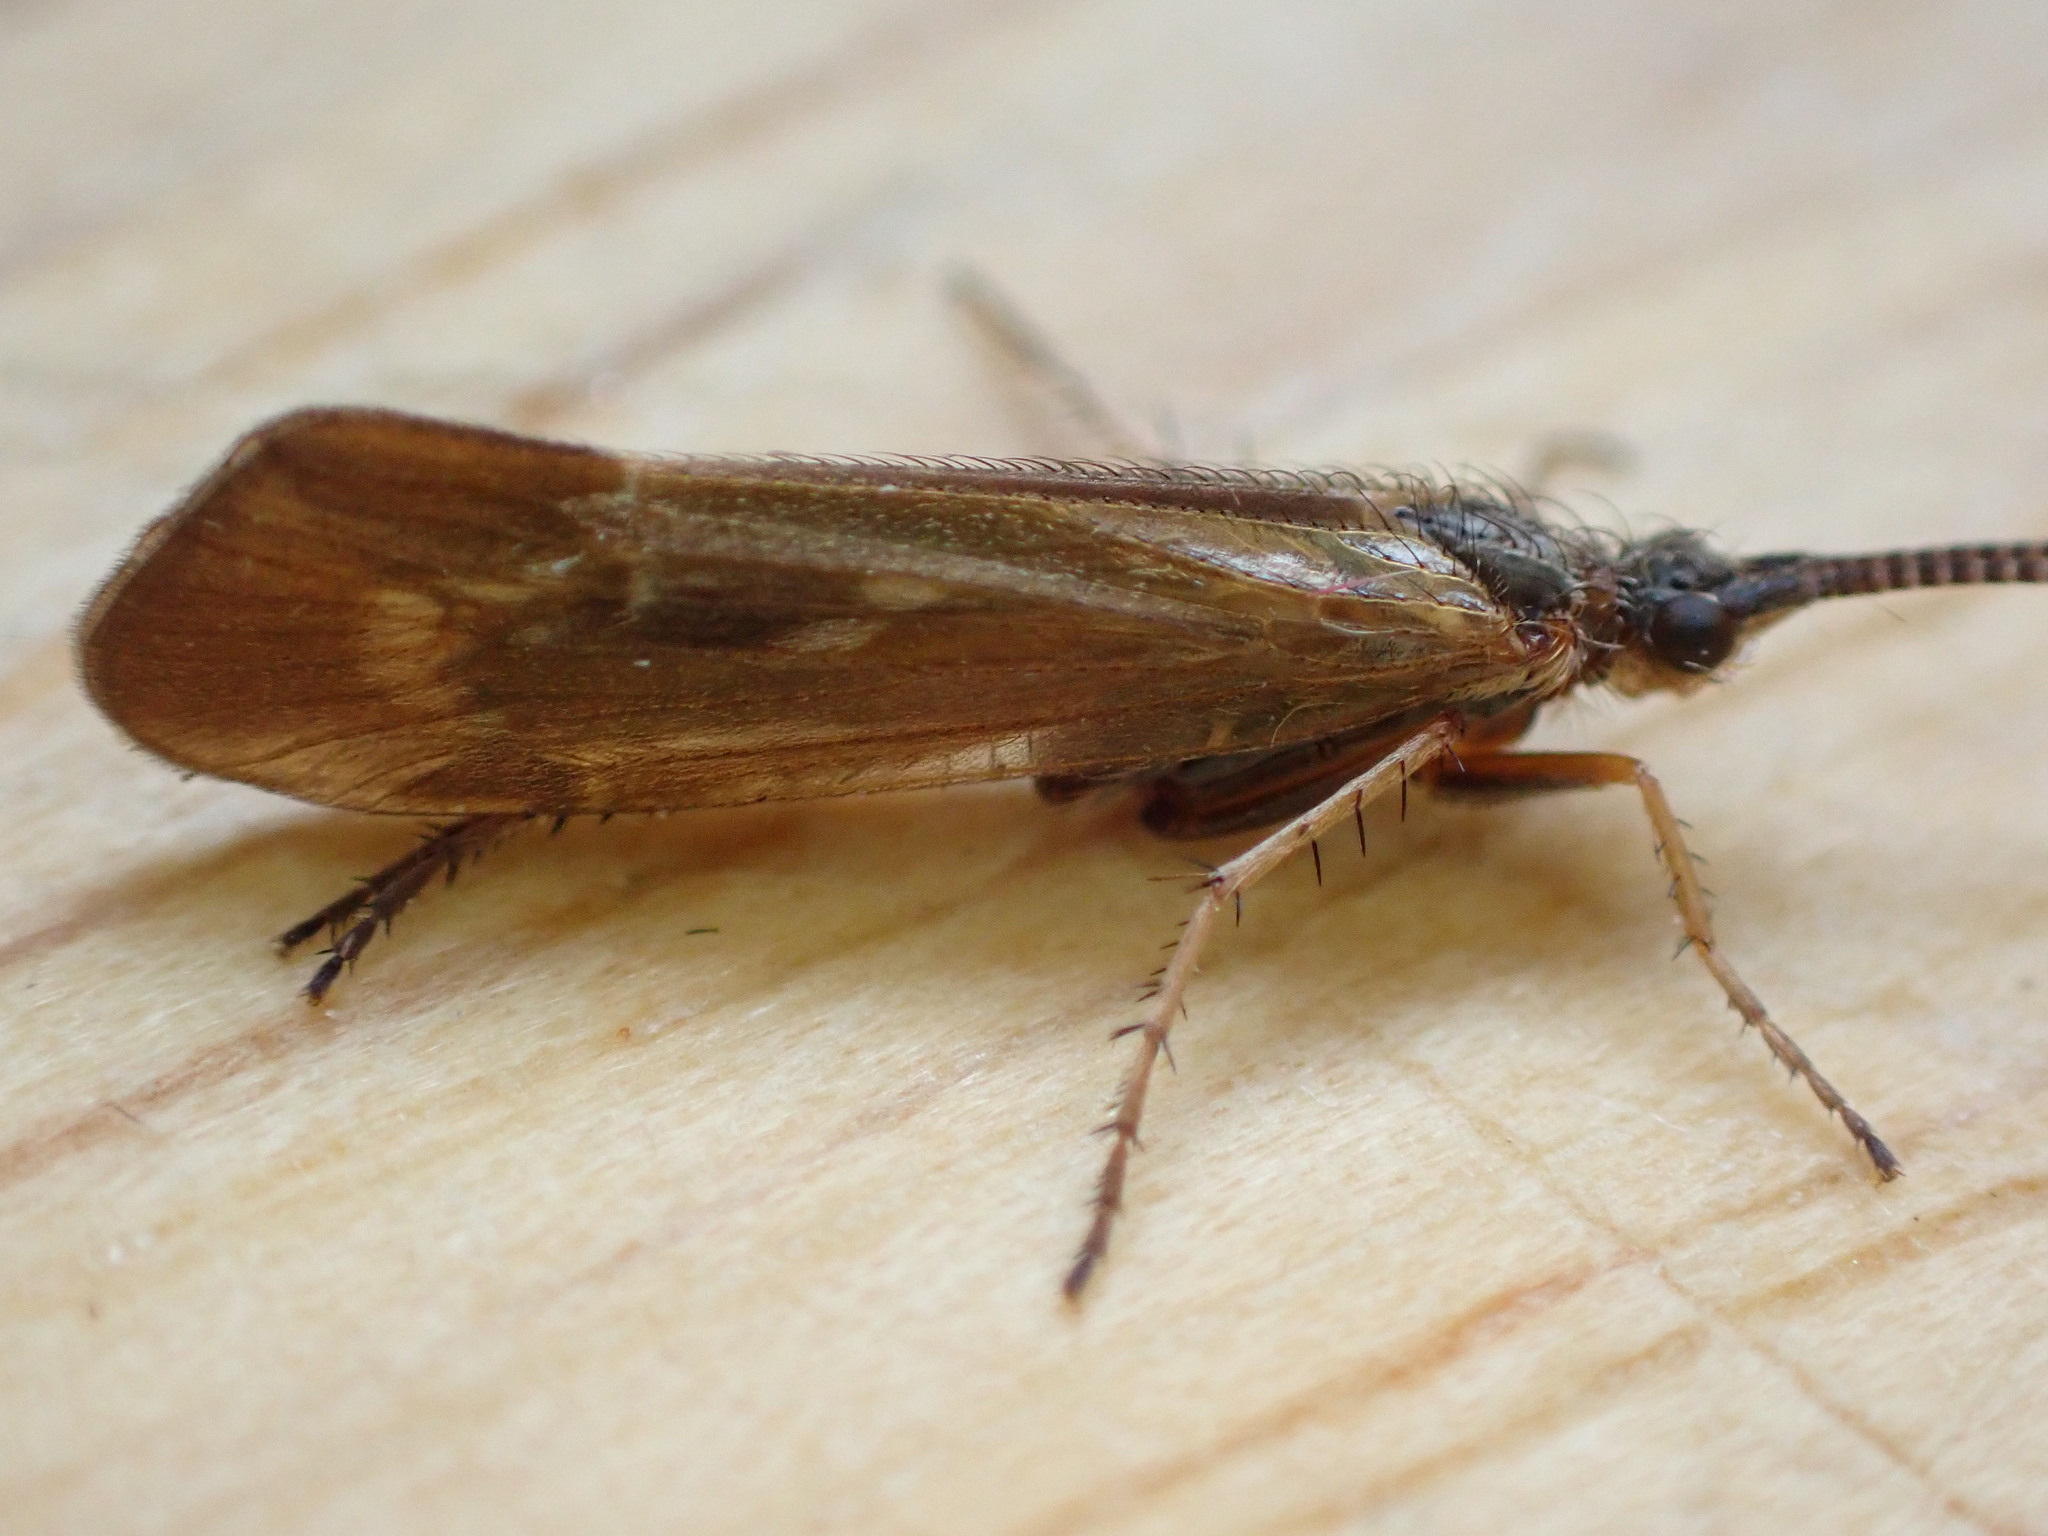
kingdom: Animalia
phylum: Arthropoda
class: Insecta
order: Trichoptera
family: Limnephilidae
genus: Limnephilus
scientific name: Limnephilus auricula
